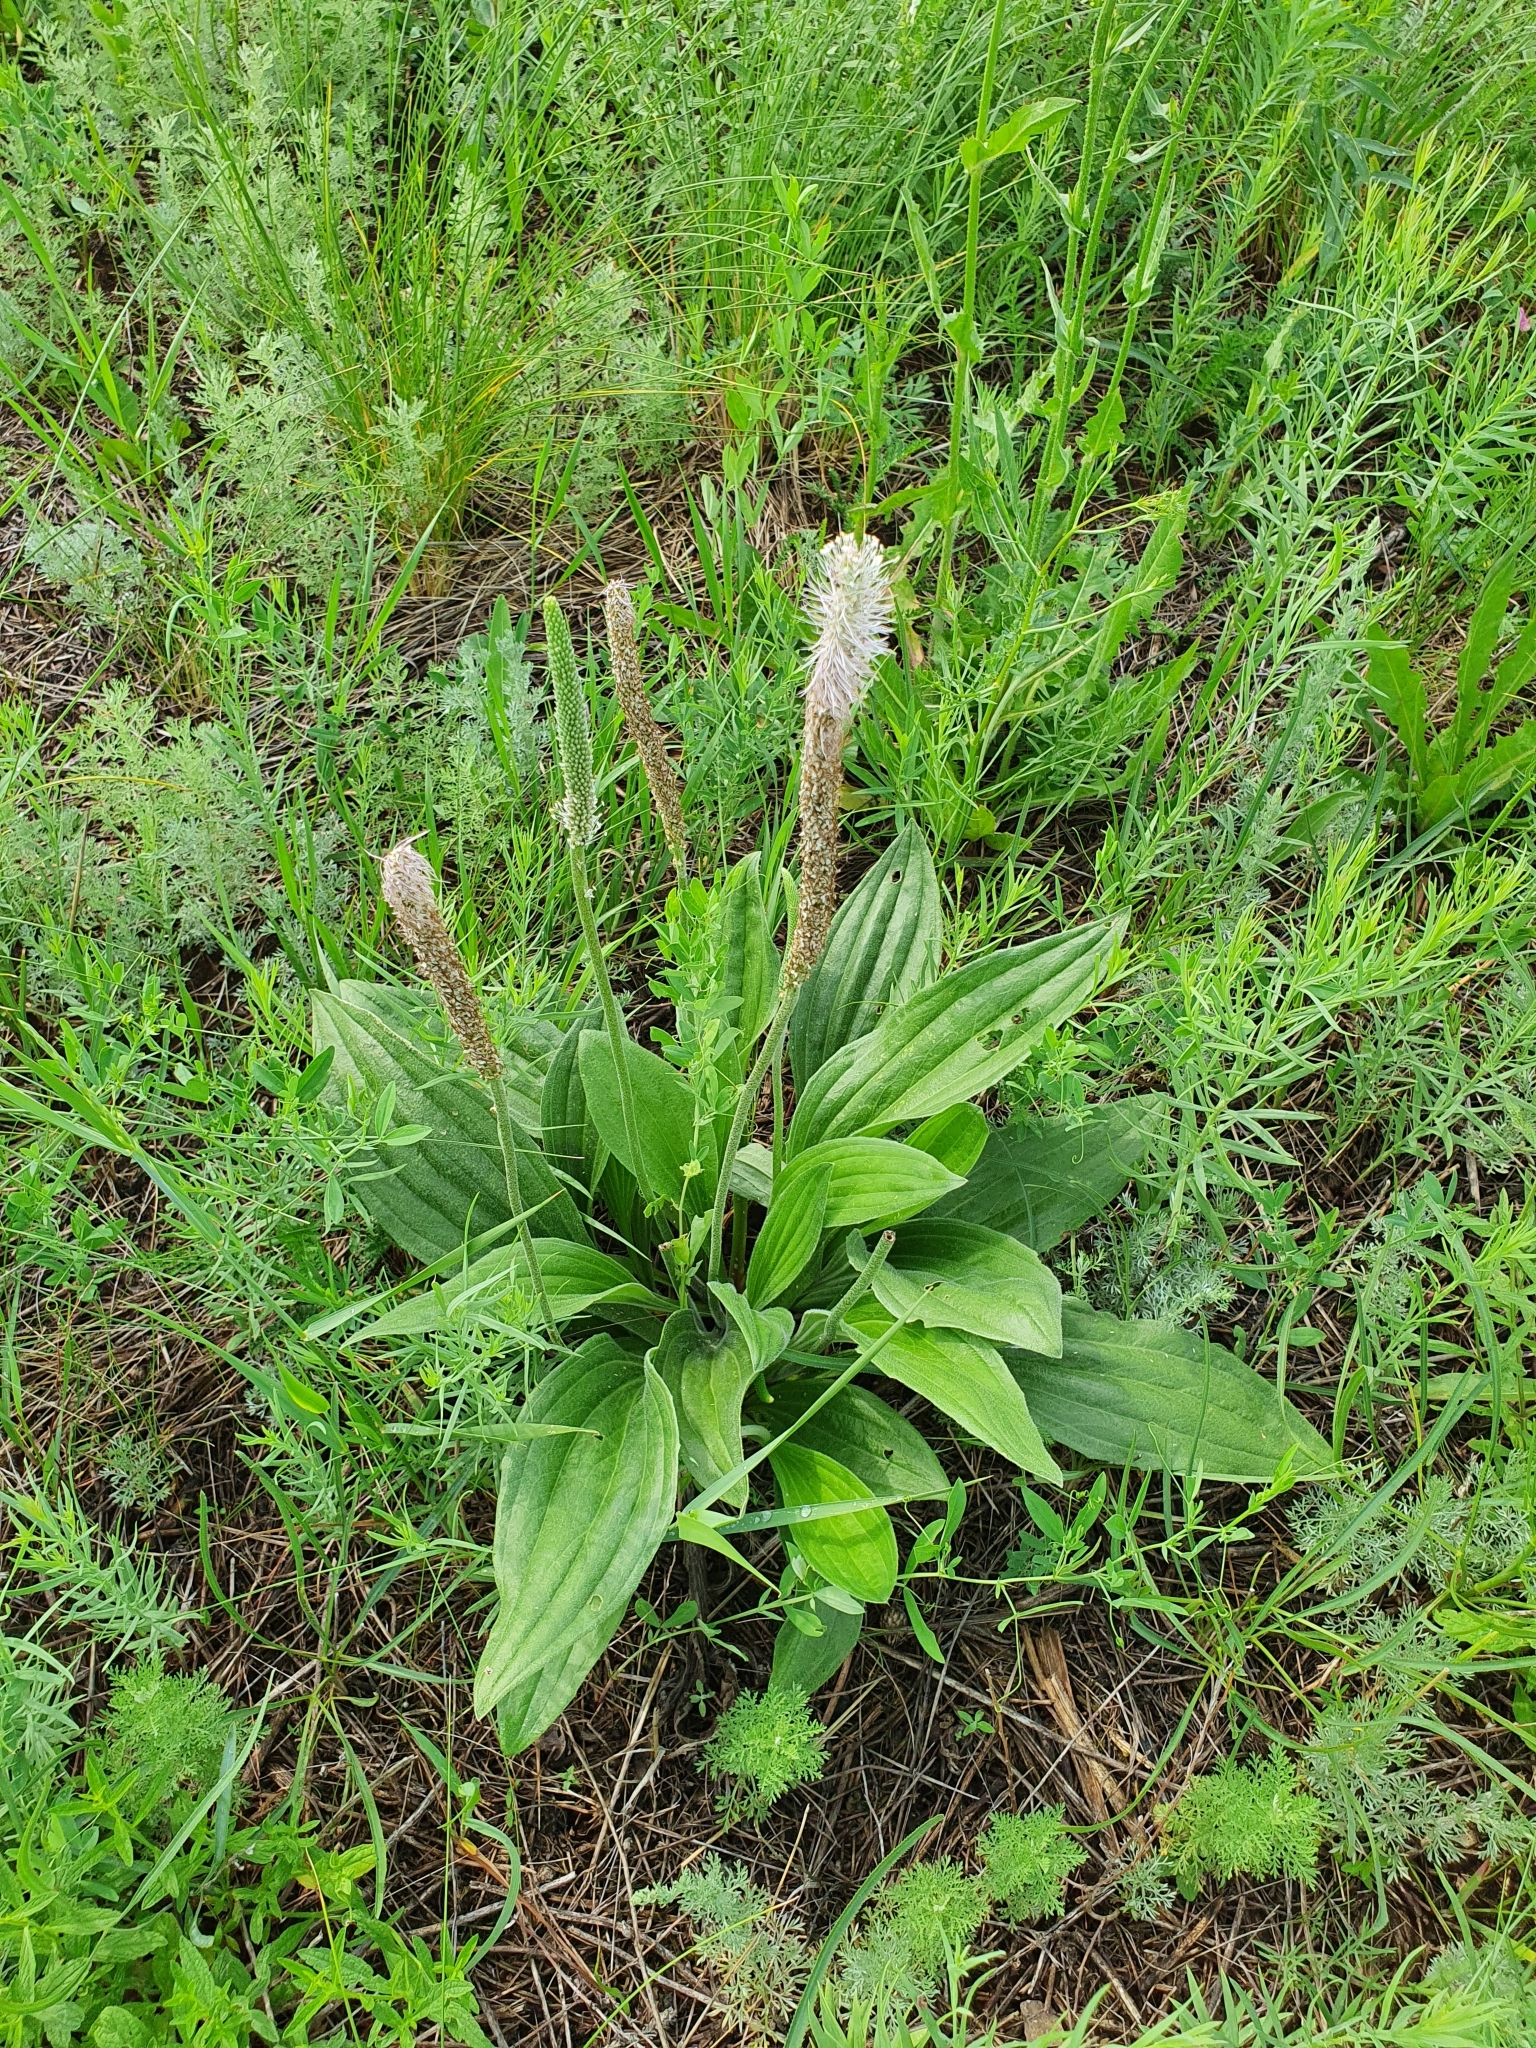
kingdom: Plantae
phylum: Tracheophyta
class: Magnoliopsida
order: Lamiales
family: Plantaginaceae
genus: Plantago
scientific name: Plantago urvillei
